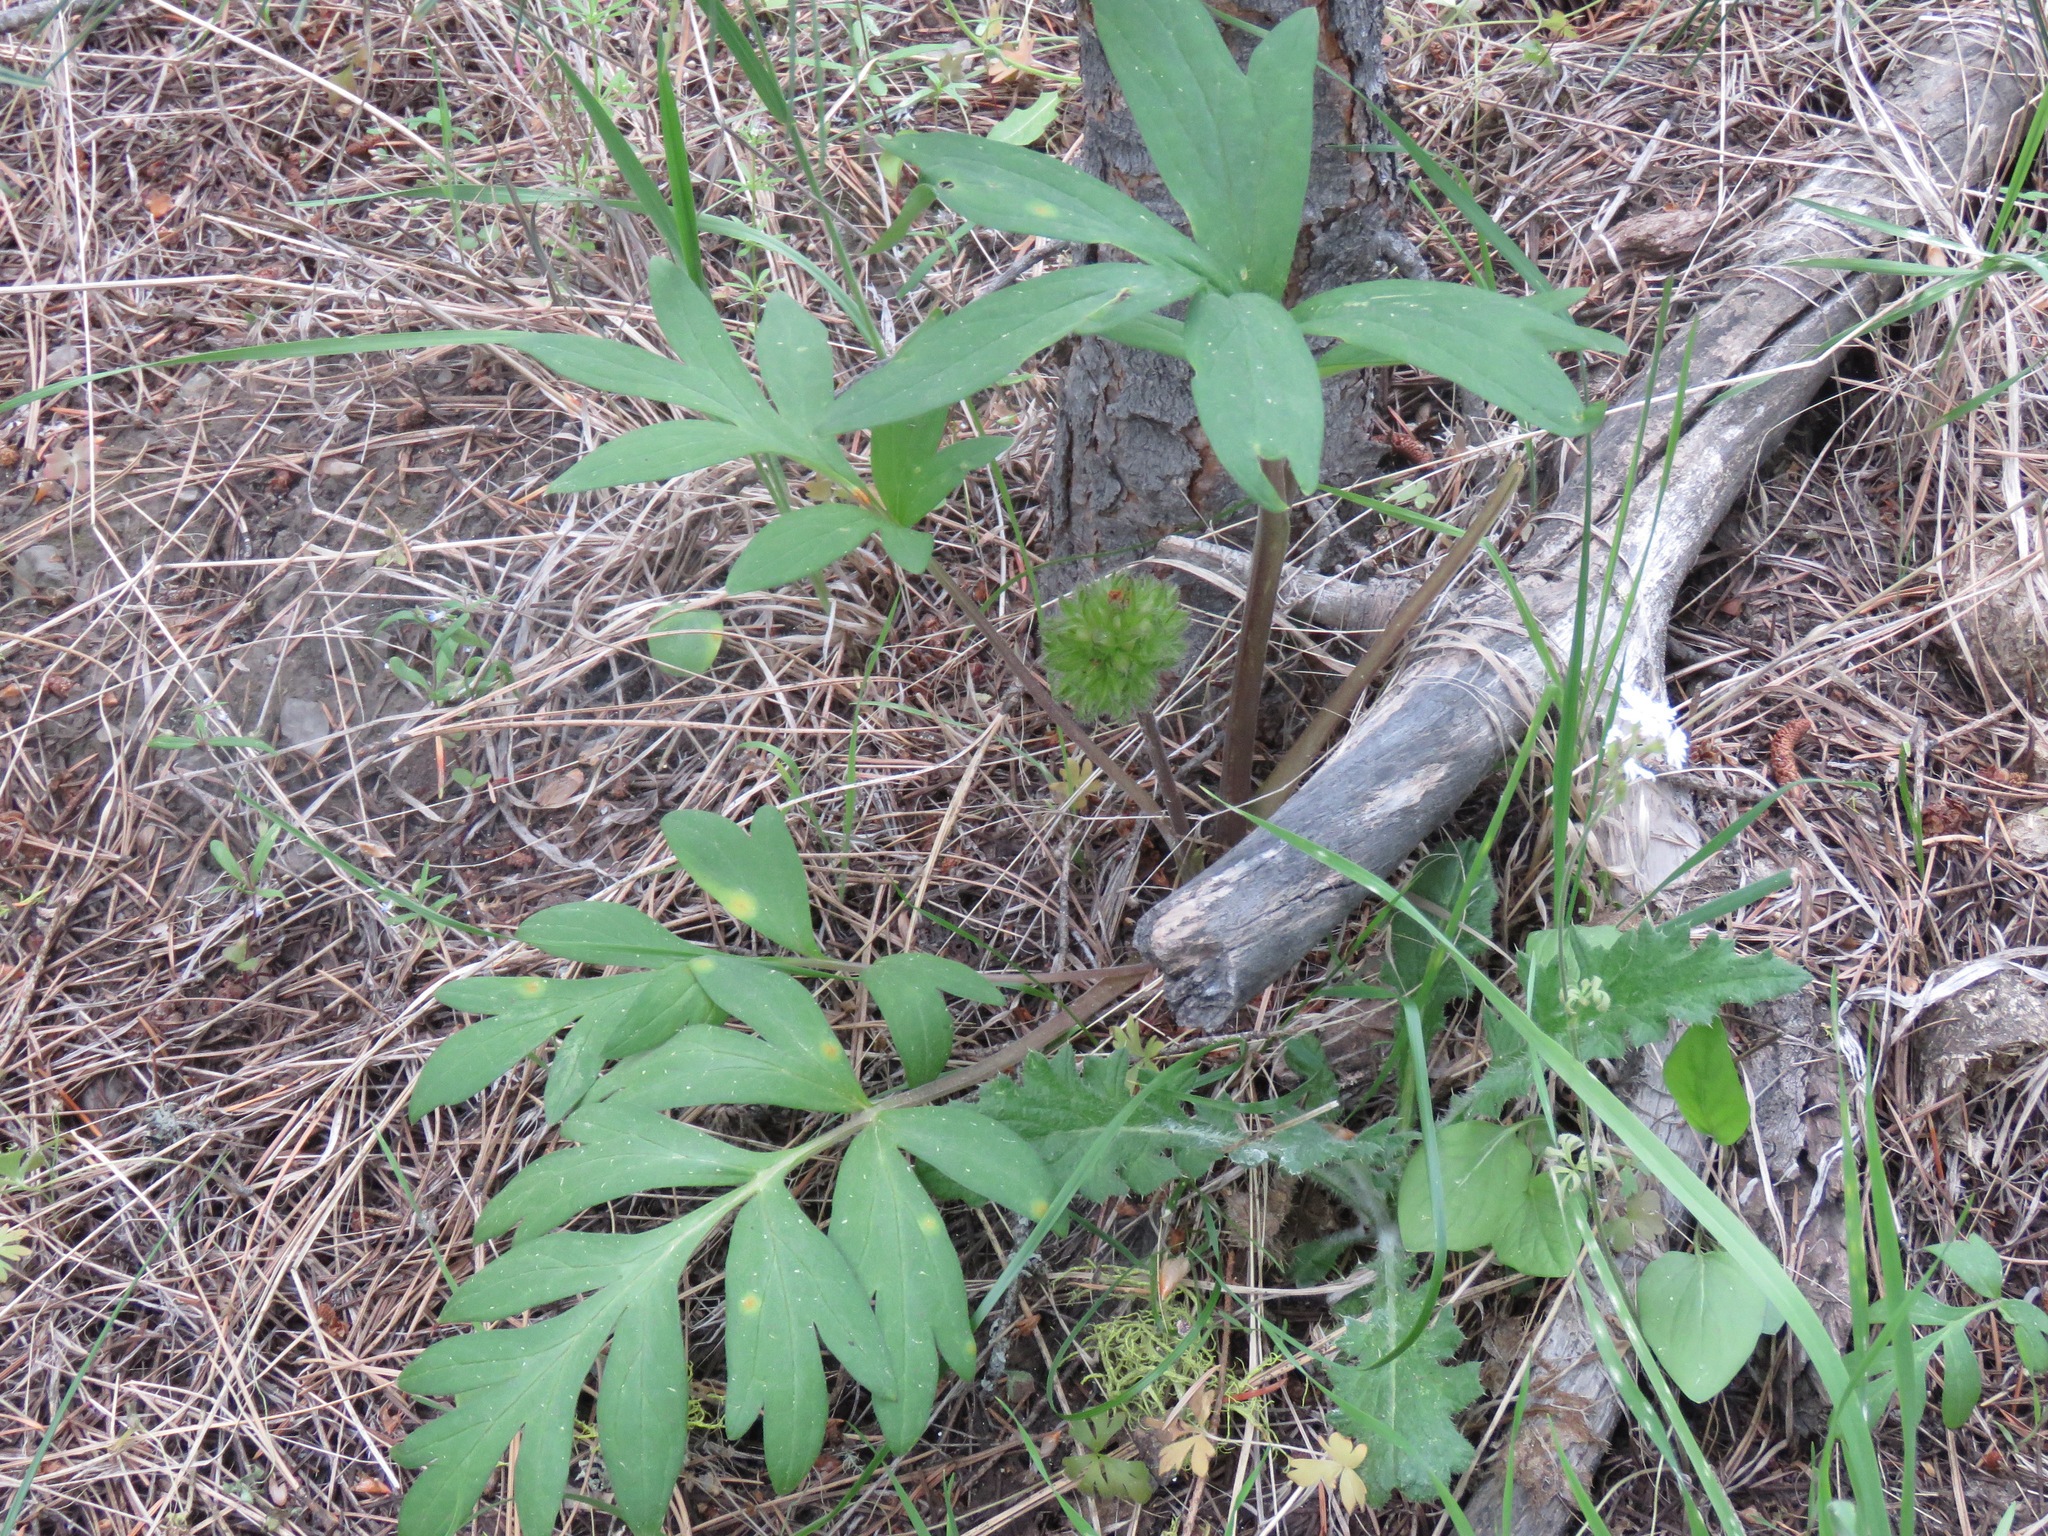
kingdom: Plantae
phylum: Tracheophyta
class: Magnoliopsida
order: Boraginales
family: Hydrophyllaceae
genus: Hydrophyllum
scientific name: Hydrophyllum capitatum
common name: Woollen-breeches
